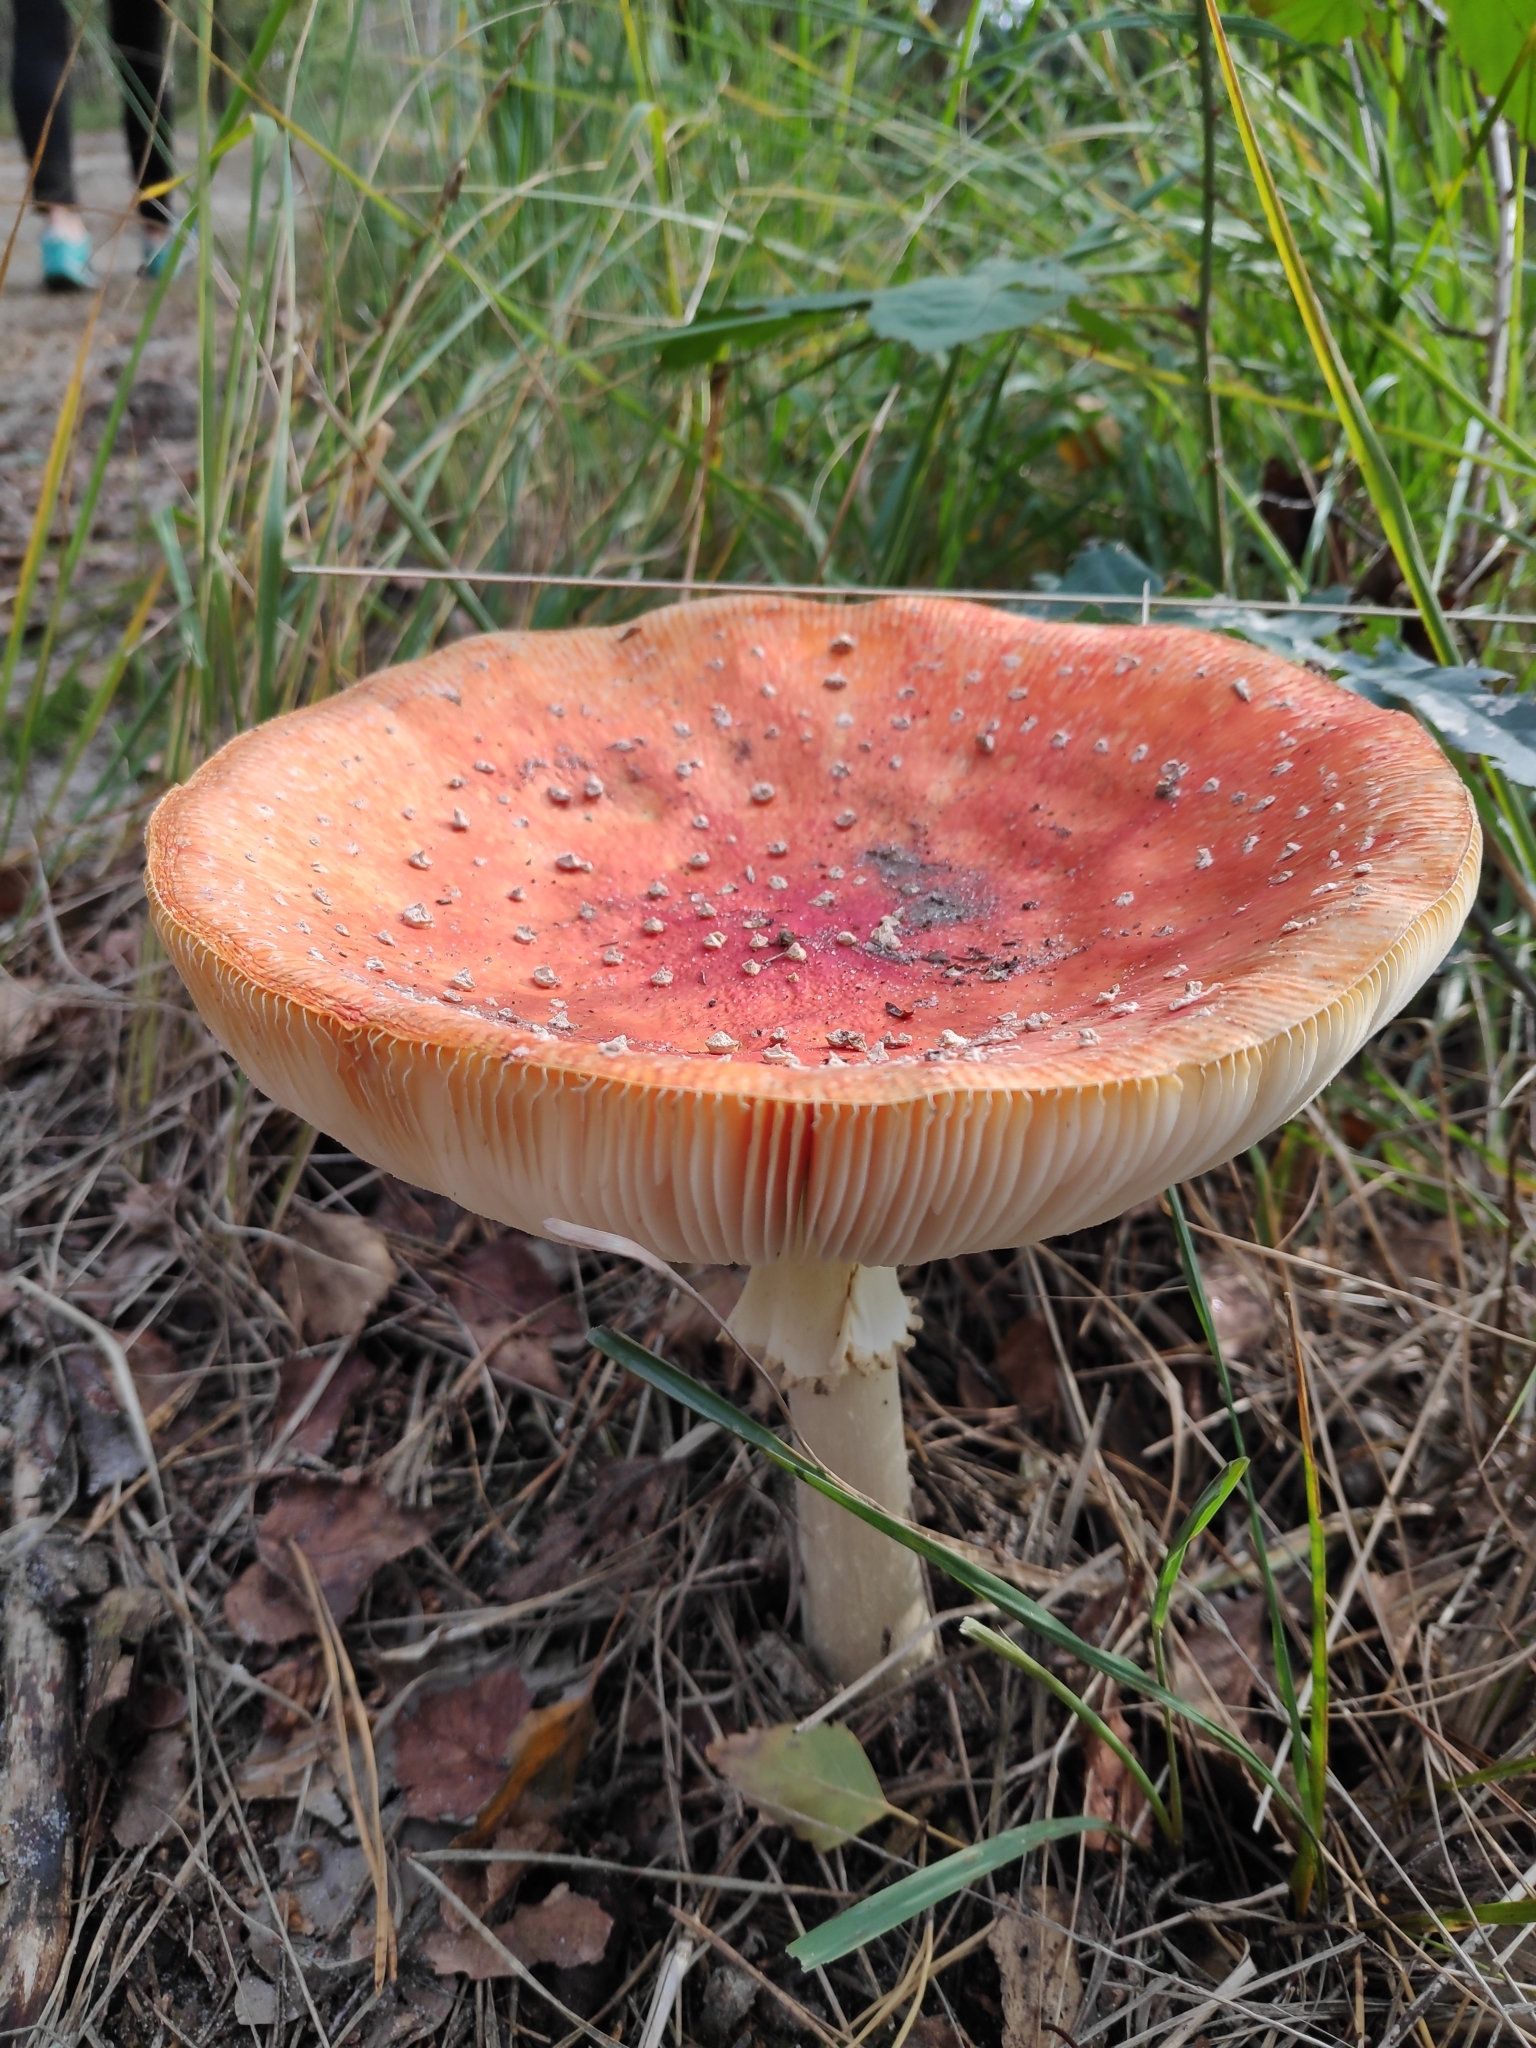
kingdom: Fungi
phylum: Basidiomycota
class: Agaricomycetes
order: Agaricales
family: Amanitaceae
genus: Amanita
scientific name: Amanita muscaria
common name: Fly agaric
